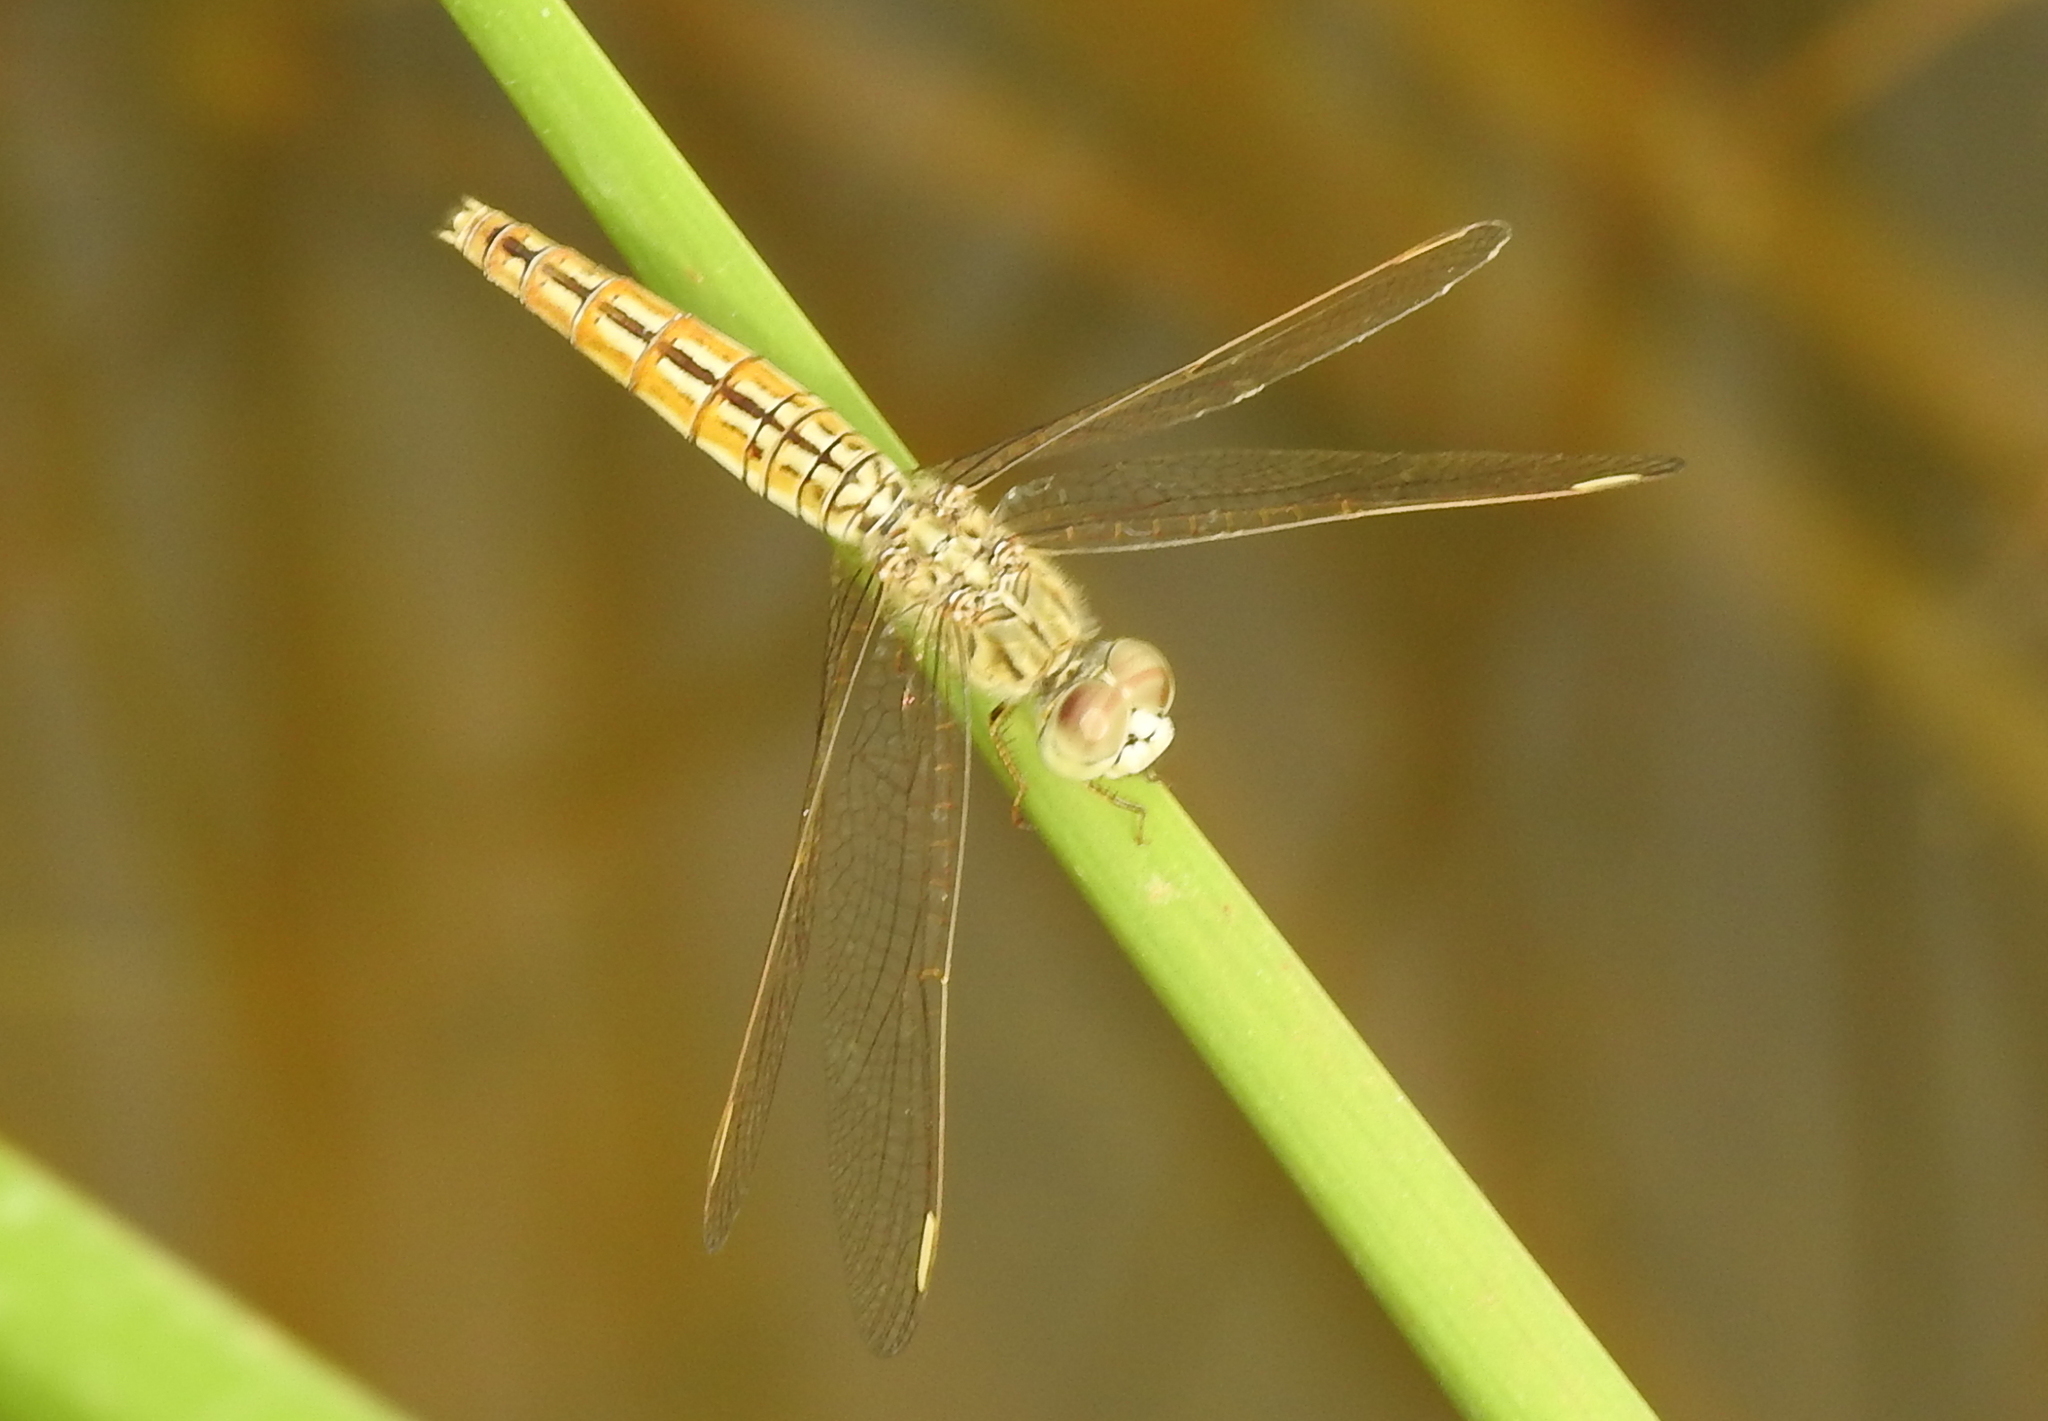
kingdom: Animalia
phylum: Arthropoda
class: Insecta
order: Odonata
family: Libellulidae
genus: Brachythemis
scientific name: Brachythemis contaminata
